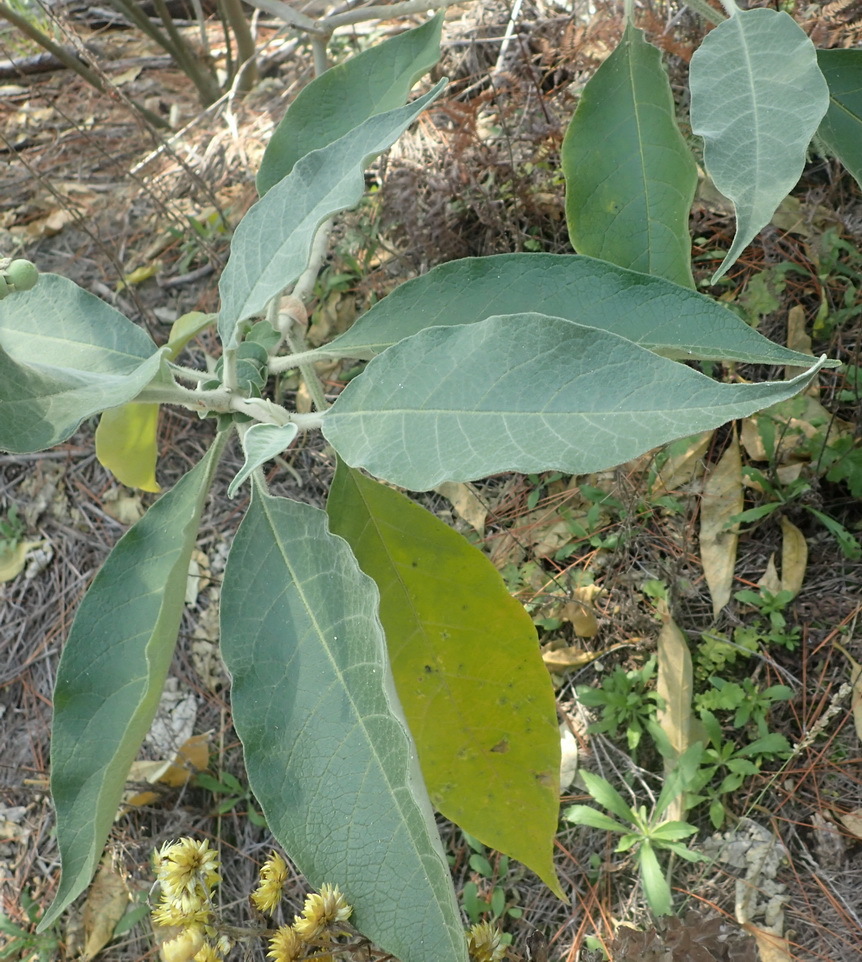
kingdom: Plantae
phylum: Tracheophyta
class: Magnoliopsida
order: Solanales
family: Solanaceae
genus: Solanum
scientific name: Solanum mauritianum
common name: Earleaf nightshade
